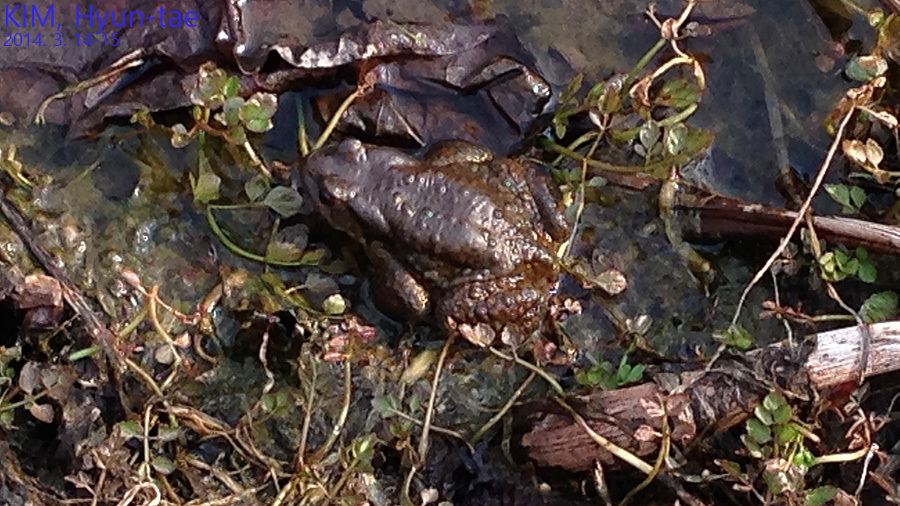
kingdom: Animalia
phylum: Chordata
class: Amphibia
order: Anura
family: Bufonidae
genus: Bufo
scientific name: Bufo gargarizans
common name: Asiatic toad
